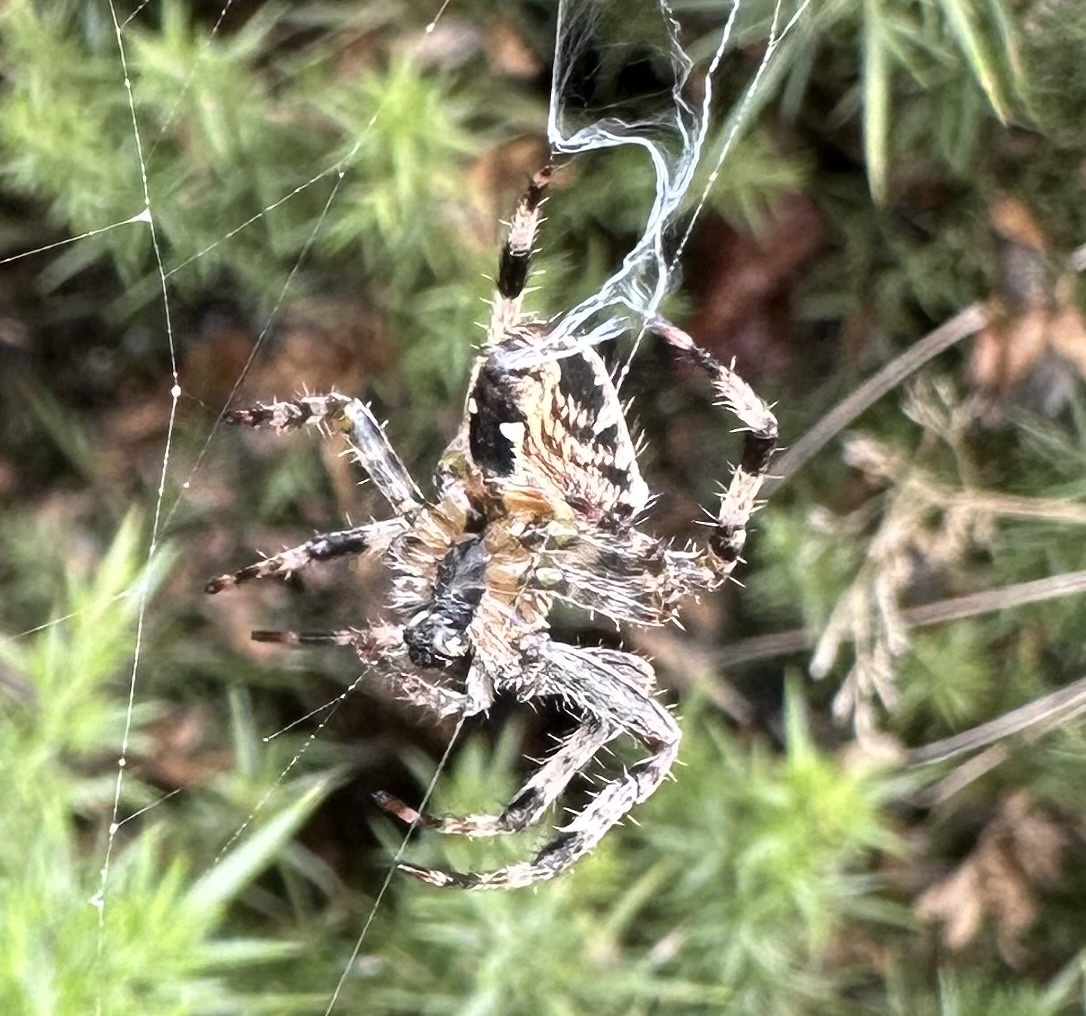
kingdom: Animalia
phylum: Arthropoda
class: Arachnida
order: Araneae
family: Araneidae
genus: Araneus
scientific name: Araneus diadematus
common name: Cross orbweaver
